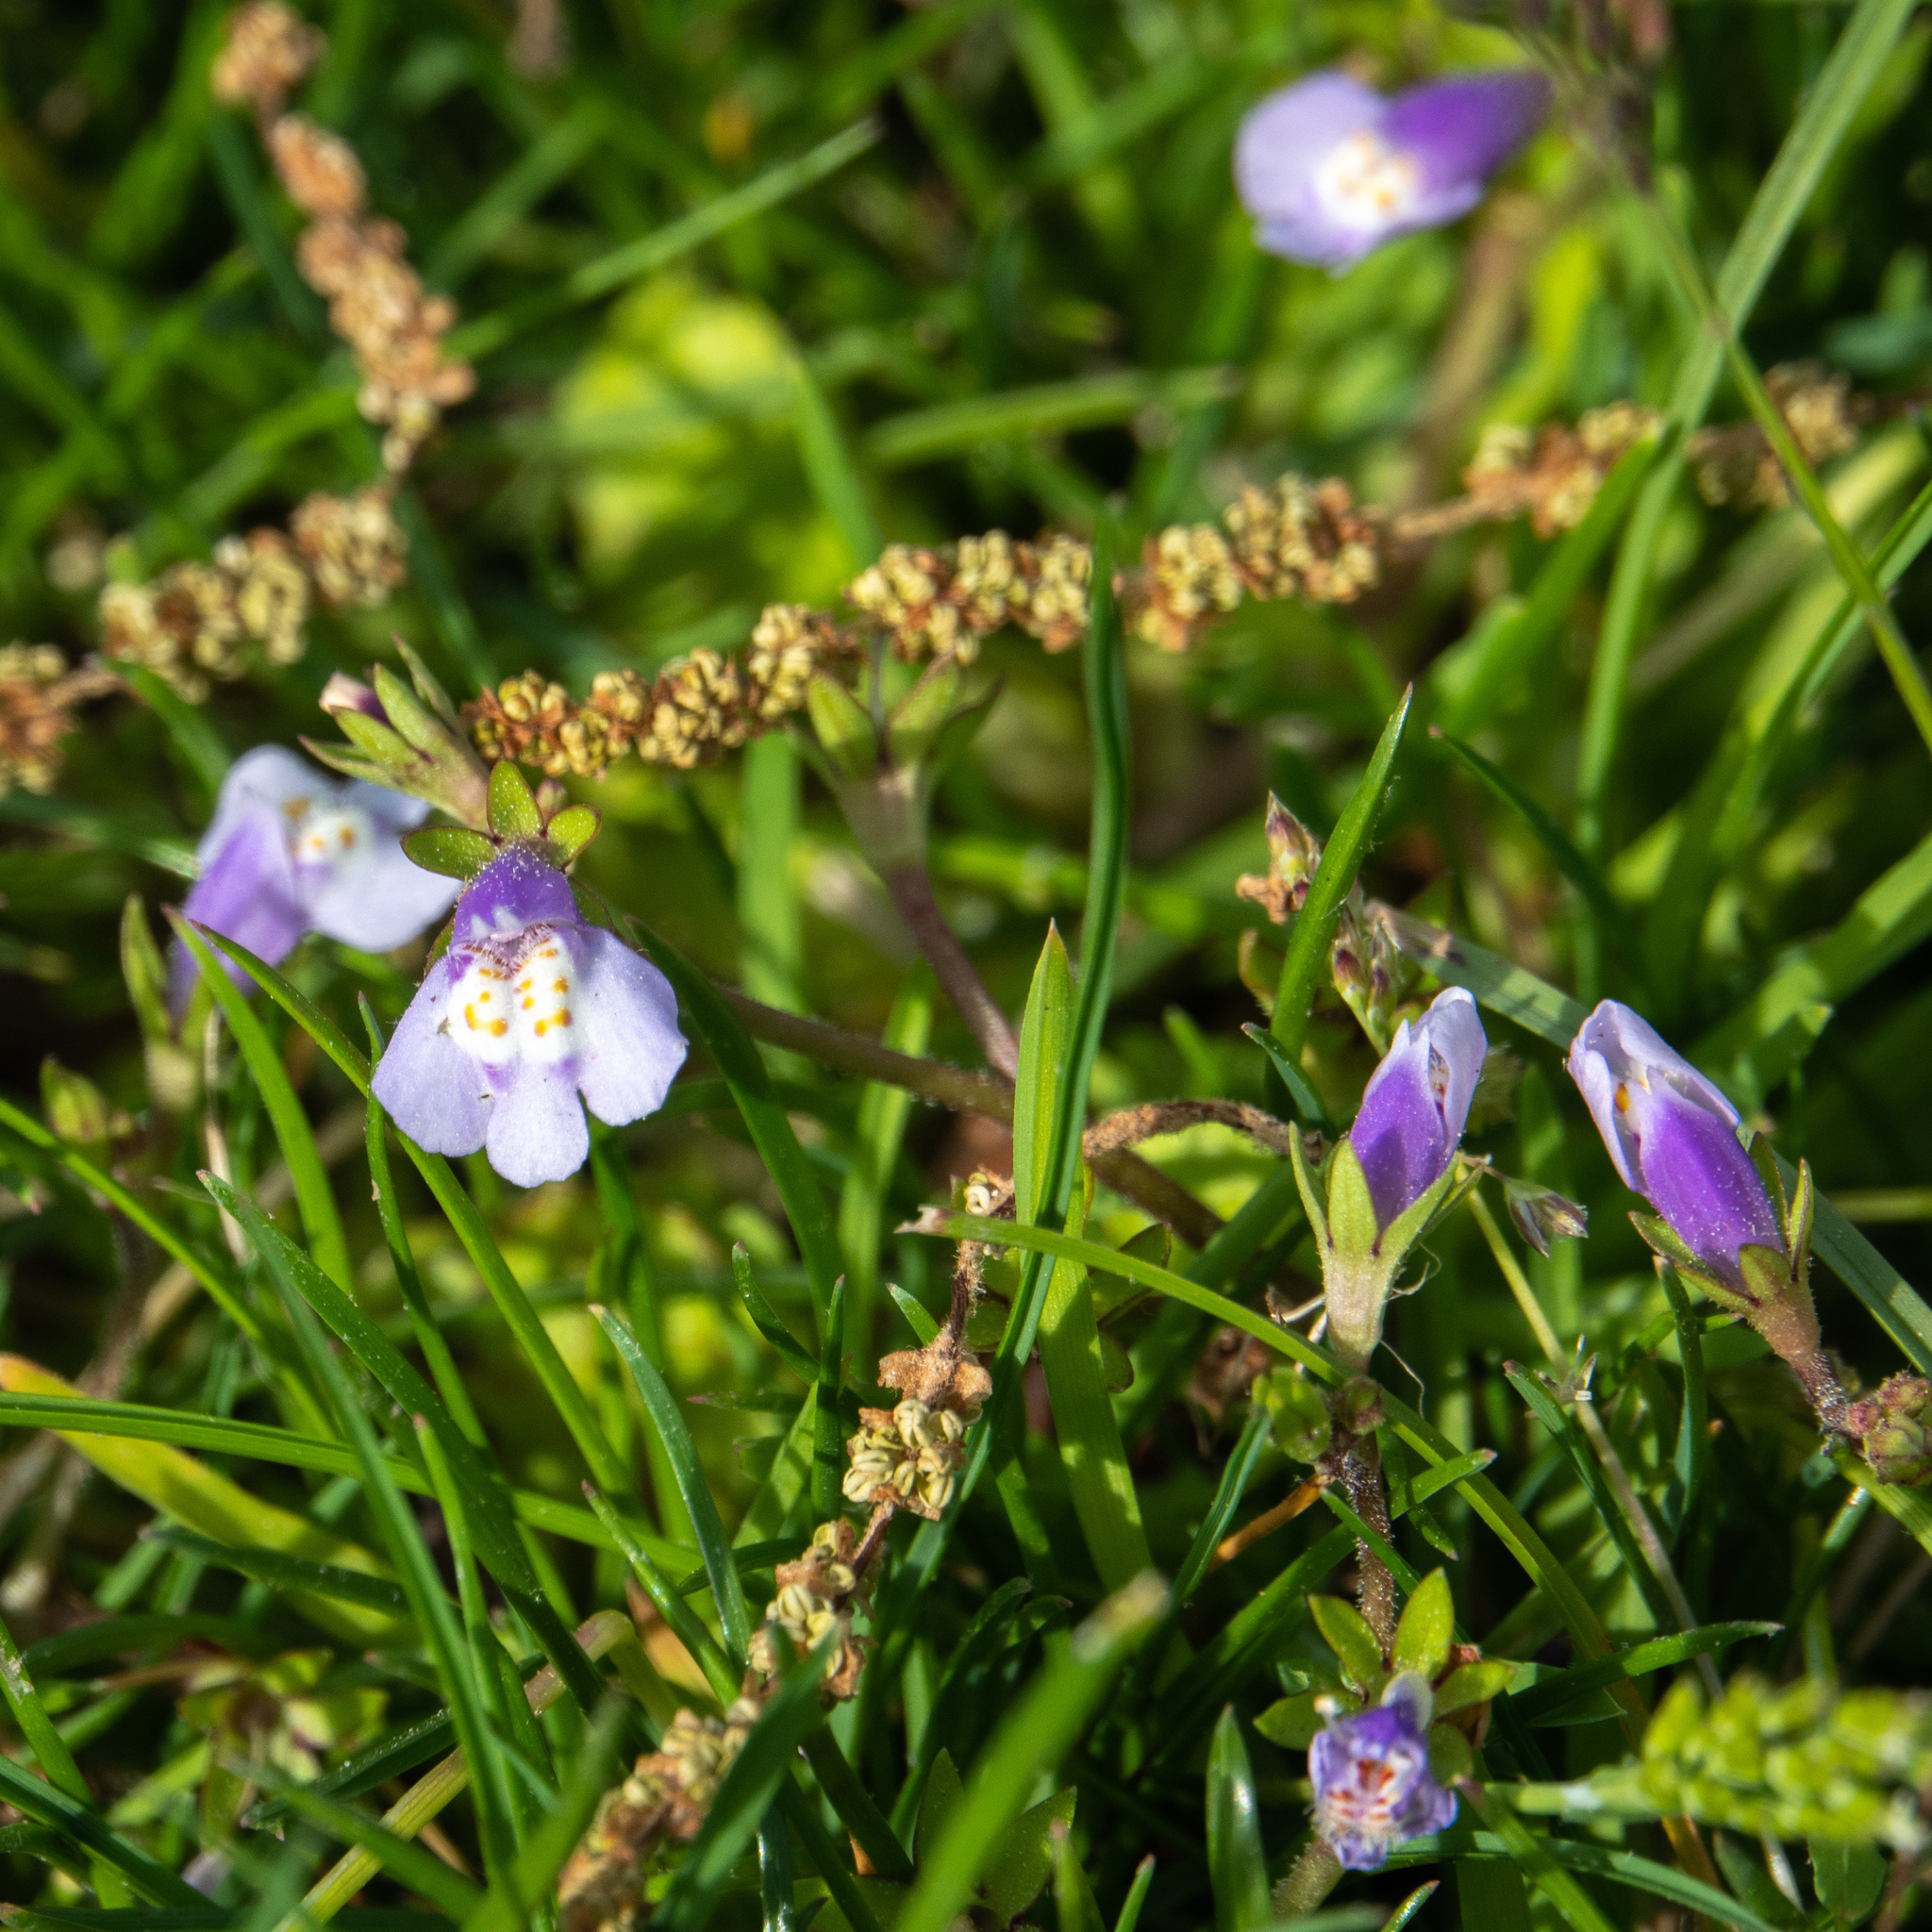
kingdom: Plantae
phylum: Tracheophyta
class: Magnoliopsida
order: Lamiales
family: Mazaceae
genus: Mazus
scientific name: Mazus pumilus
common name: Japanese mazus
